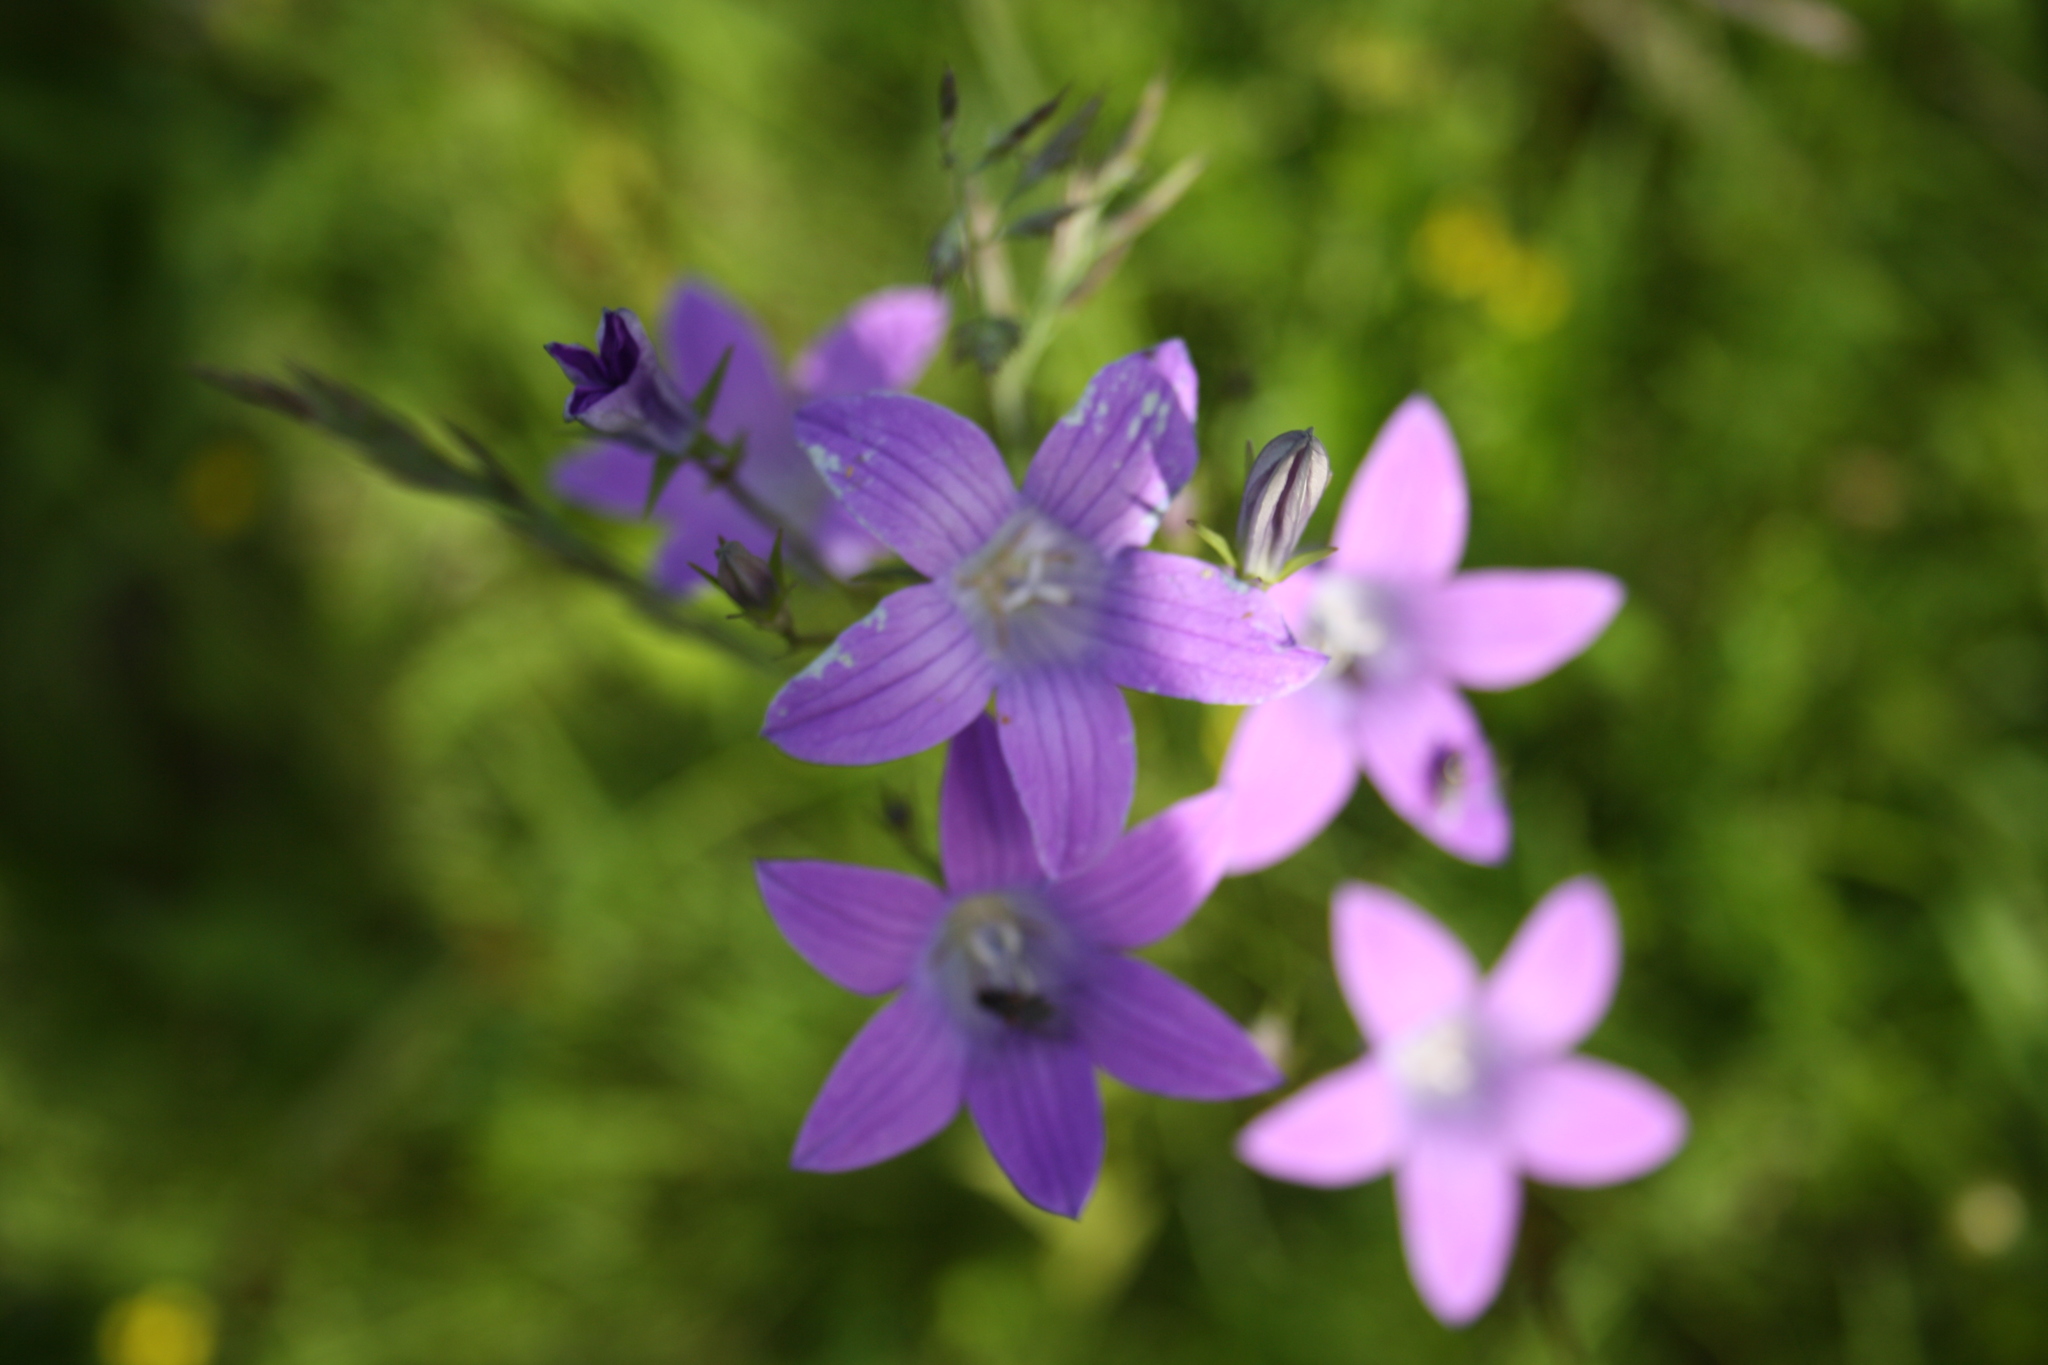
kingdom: Plantae
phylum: Tracheophyta
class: Magnoliopsida
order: Asterales
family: Campanulaceae
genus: Campanula
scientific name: Campanula patula
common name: Spreading bellflower
